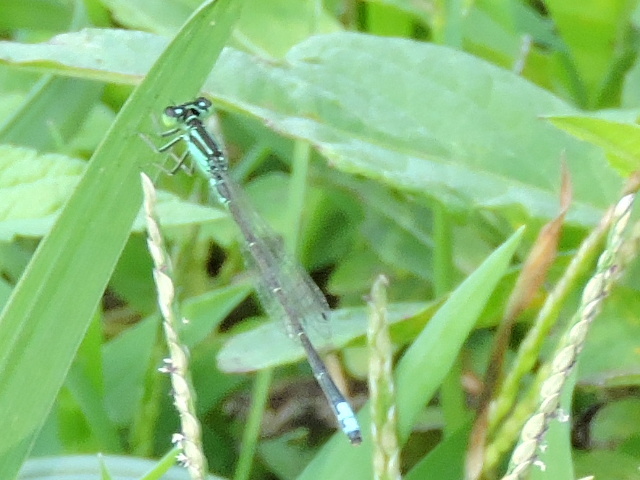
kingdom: Animalia
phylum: Arthropoda
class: Insecta
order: Odonata
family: Coenagrionidae
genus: Ischnura
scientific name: Ischnura verticalis
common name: Eastern forktail
